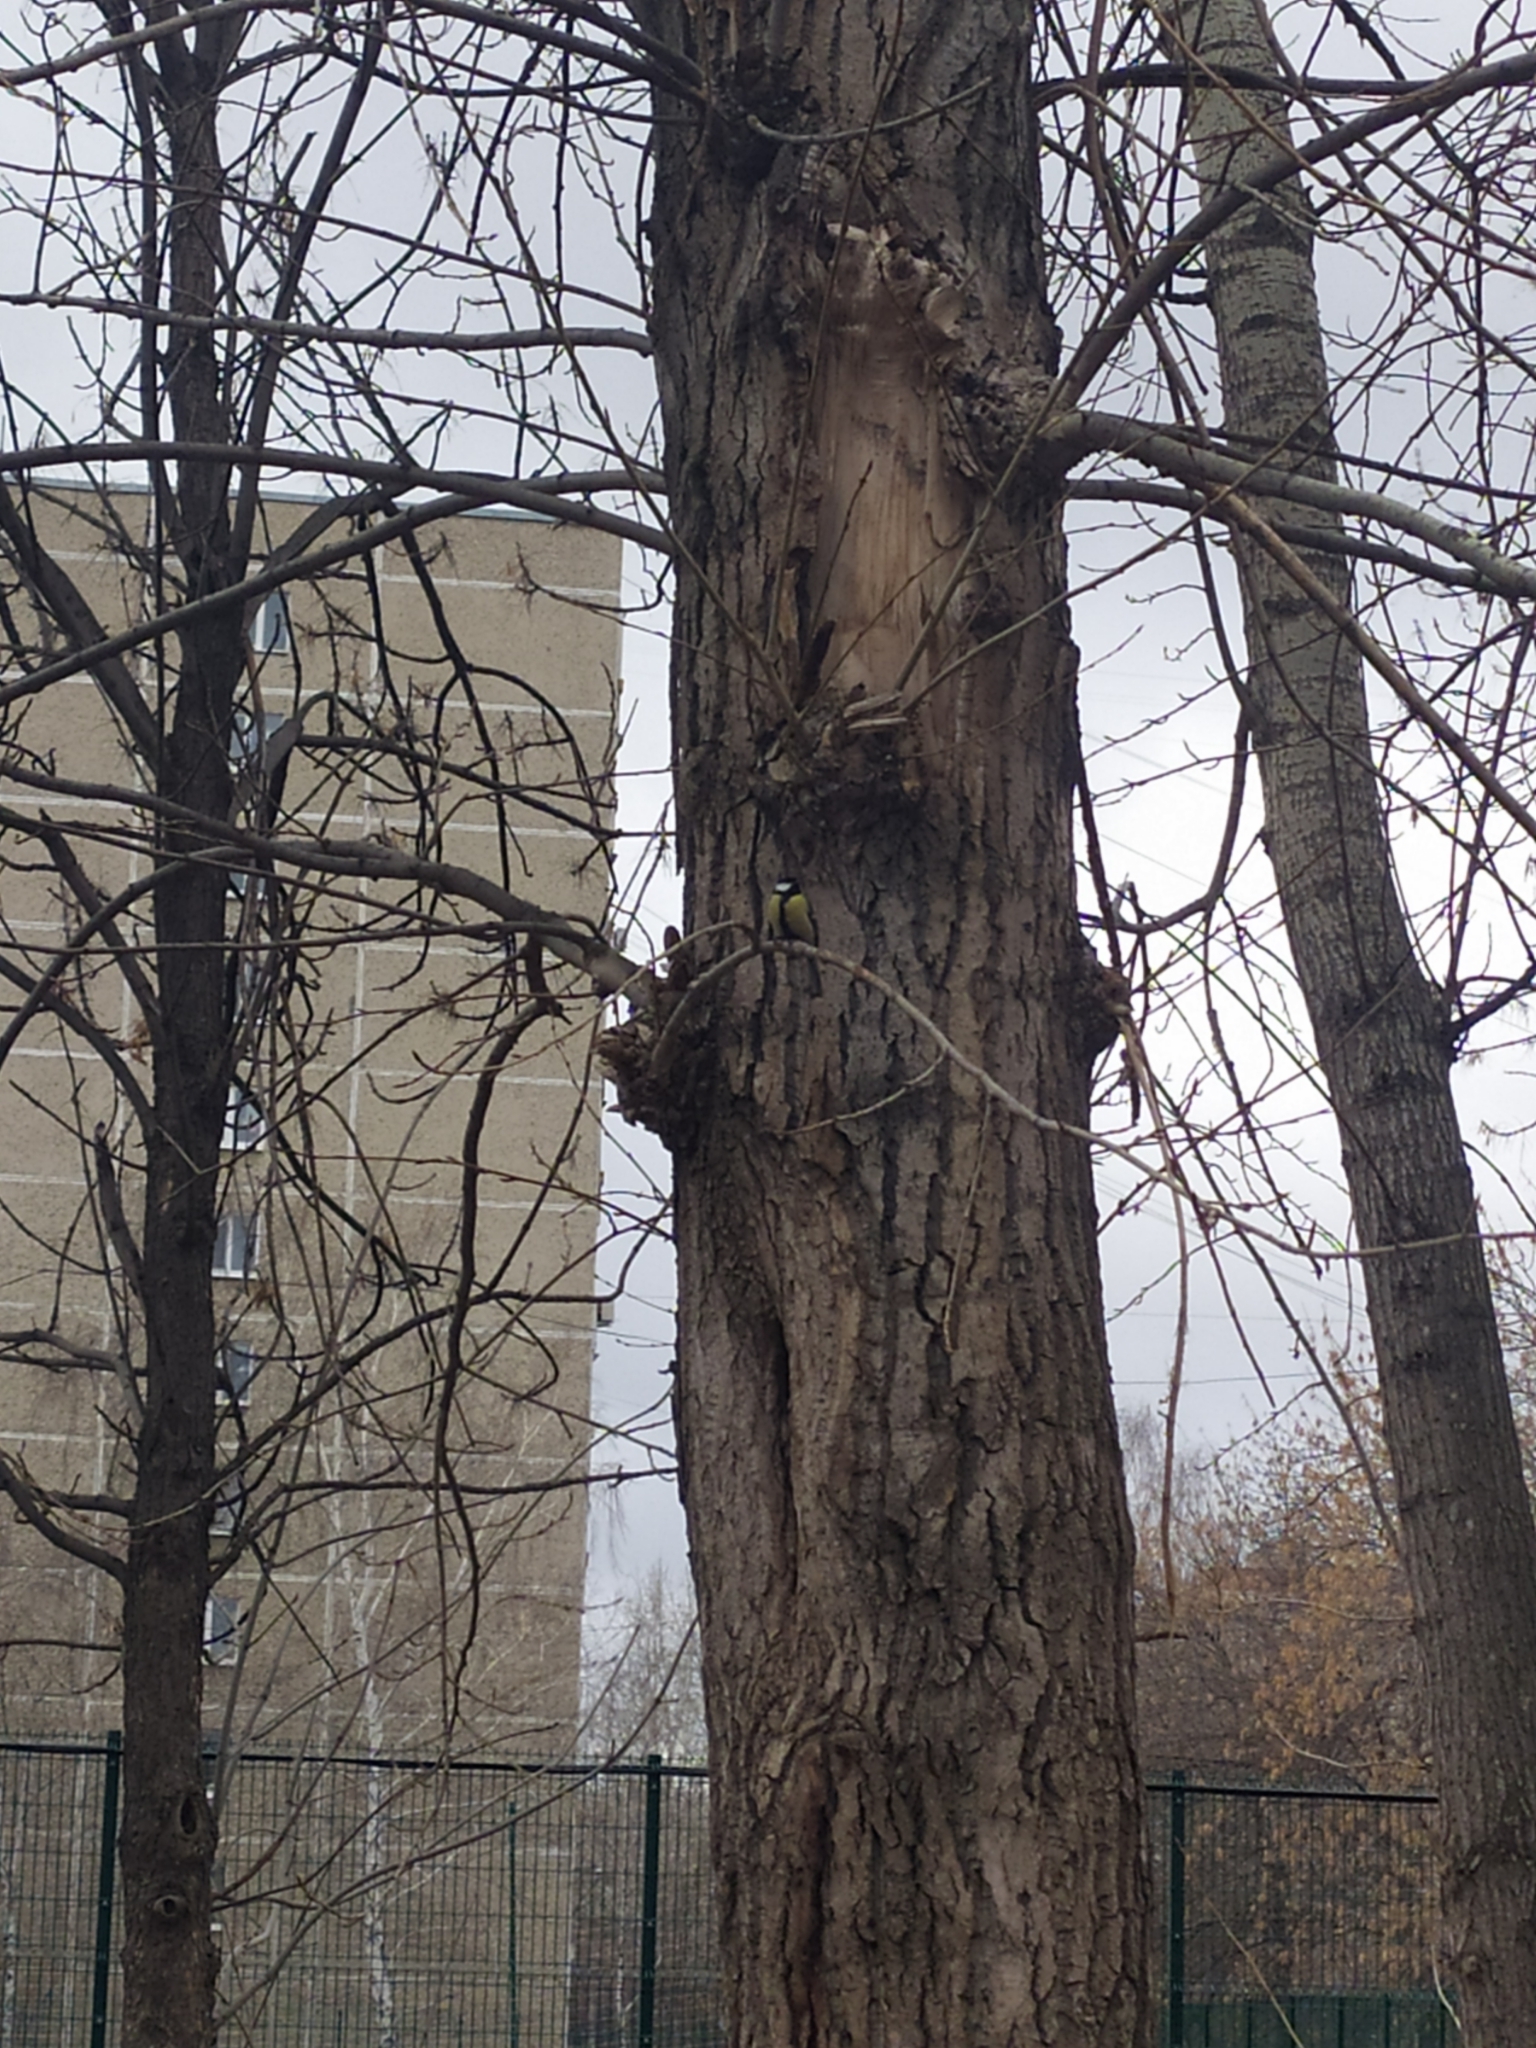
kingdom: Animalia
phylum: Chordata
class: Aves
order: Passeriformes
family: Paridae
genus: Parus
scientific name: Parus major
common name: Great tit
